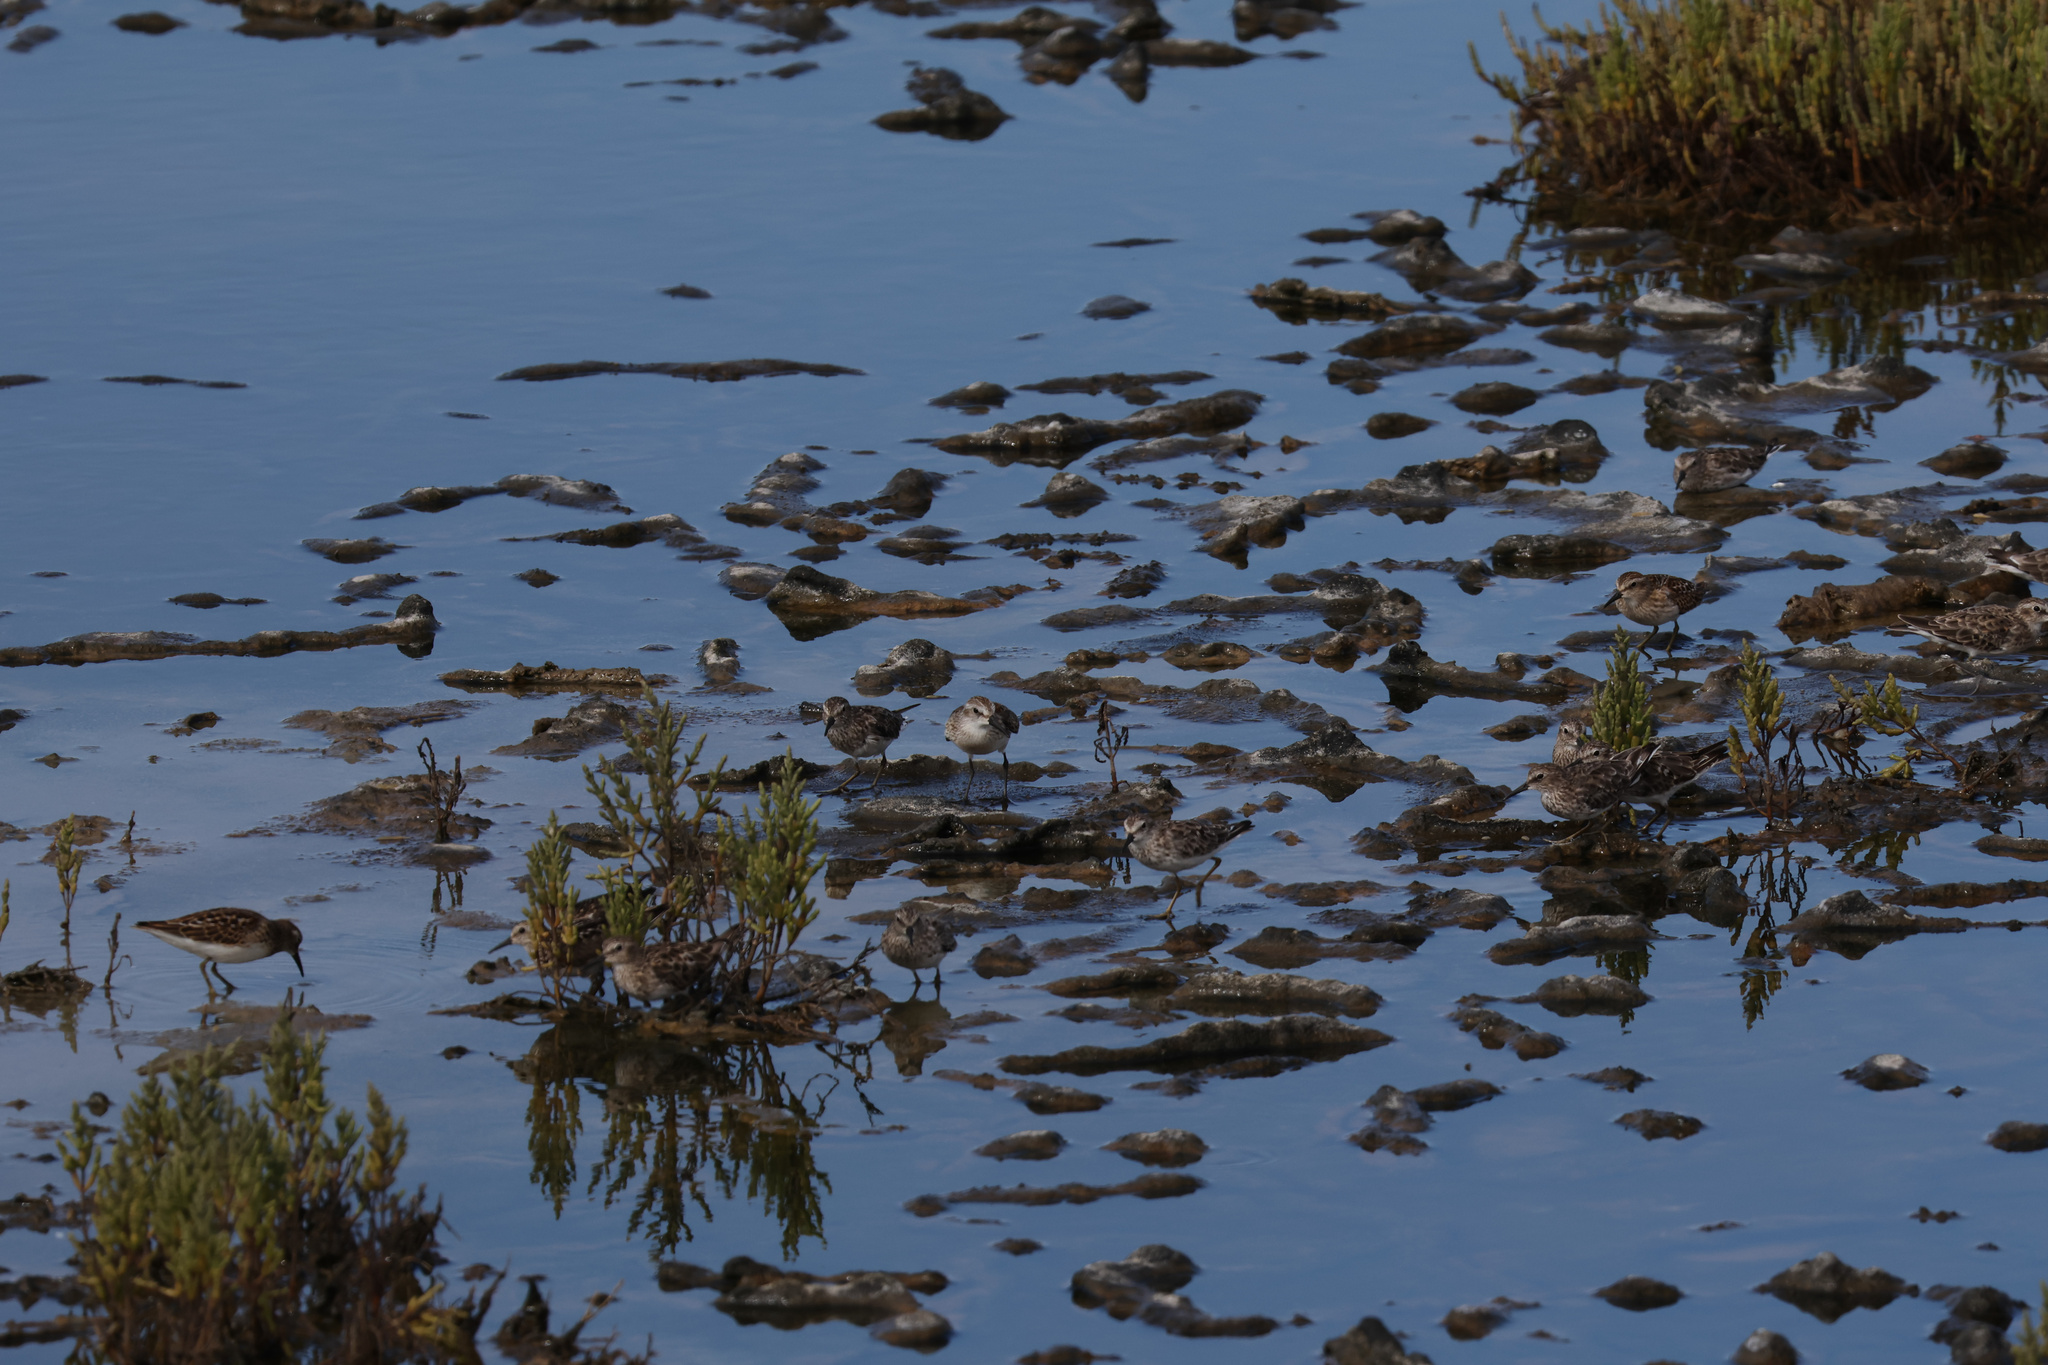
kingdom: Animalia
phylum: Chordata
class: Aves
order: Charadriiformes
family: Scolopacidae
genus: Calidris
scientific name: Calidris mauri
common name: Western sandpiper
